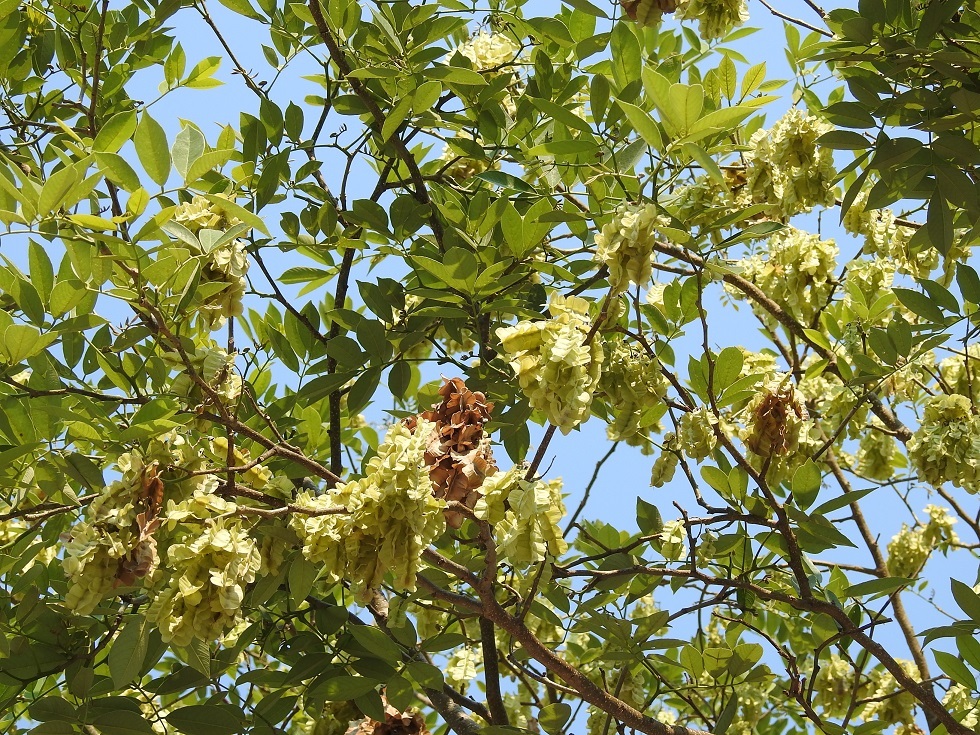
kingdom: Plantae
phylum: Tracheophyta
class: Magnoliopsida
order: Fabales
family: Fabaceae
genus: Piscidia
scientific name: Piscidia piscipula
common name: Florida fishpoison tree
